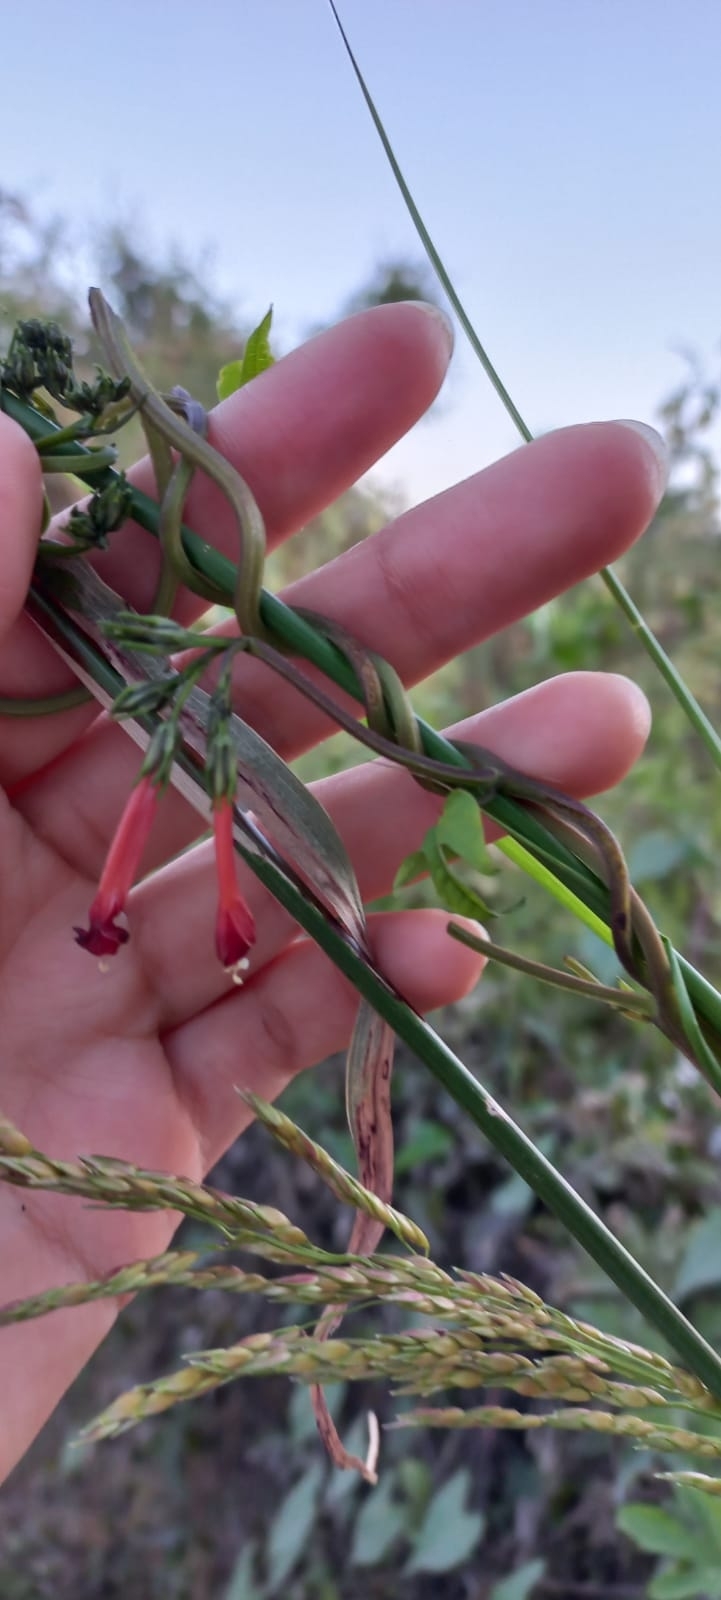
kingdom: Plantae
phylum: Tracheophyta
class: Magnoliopsida
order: Solanales
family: Convolvulaceae
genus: Ipomoea
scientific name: Ipomoea indivisa
